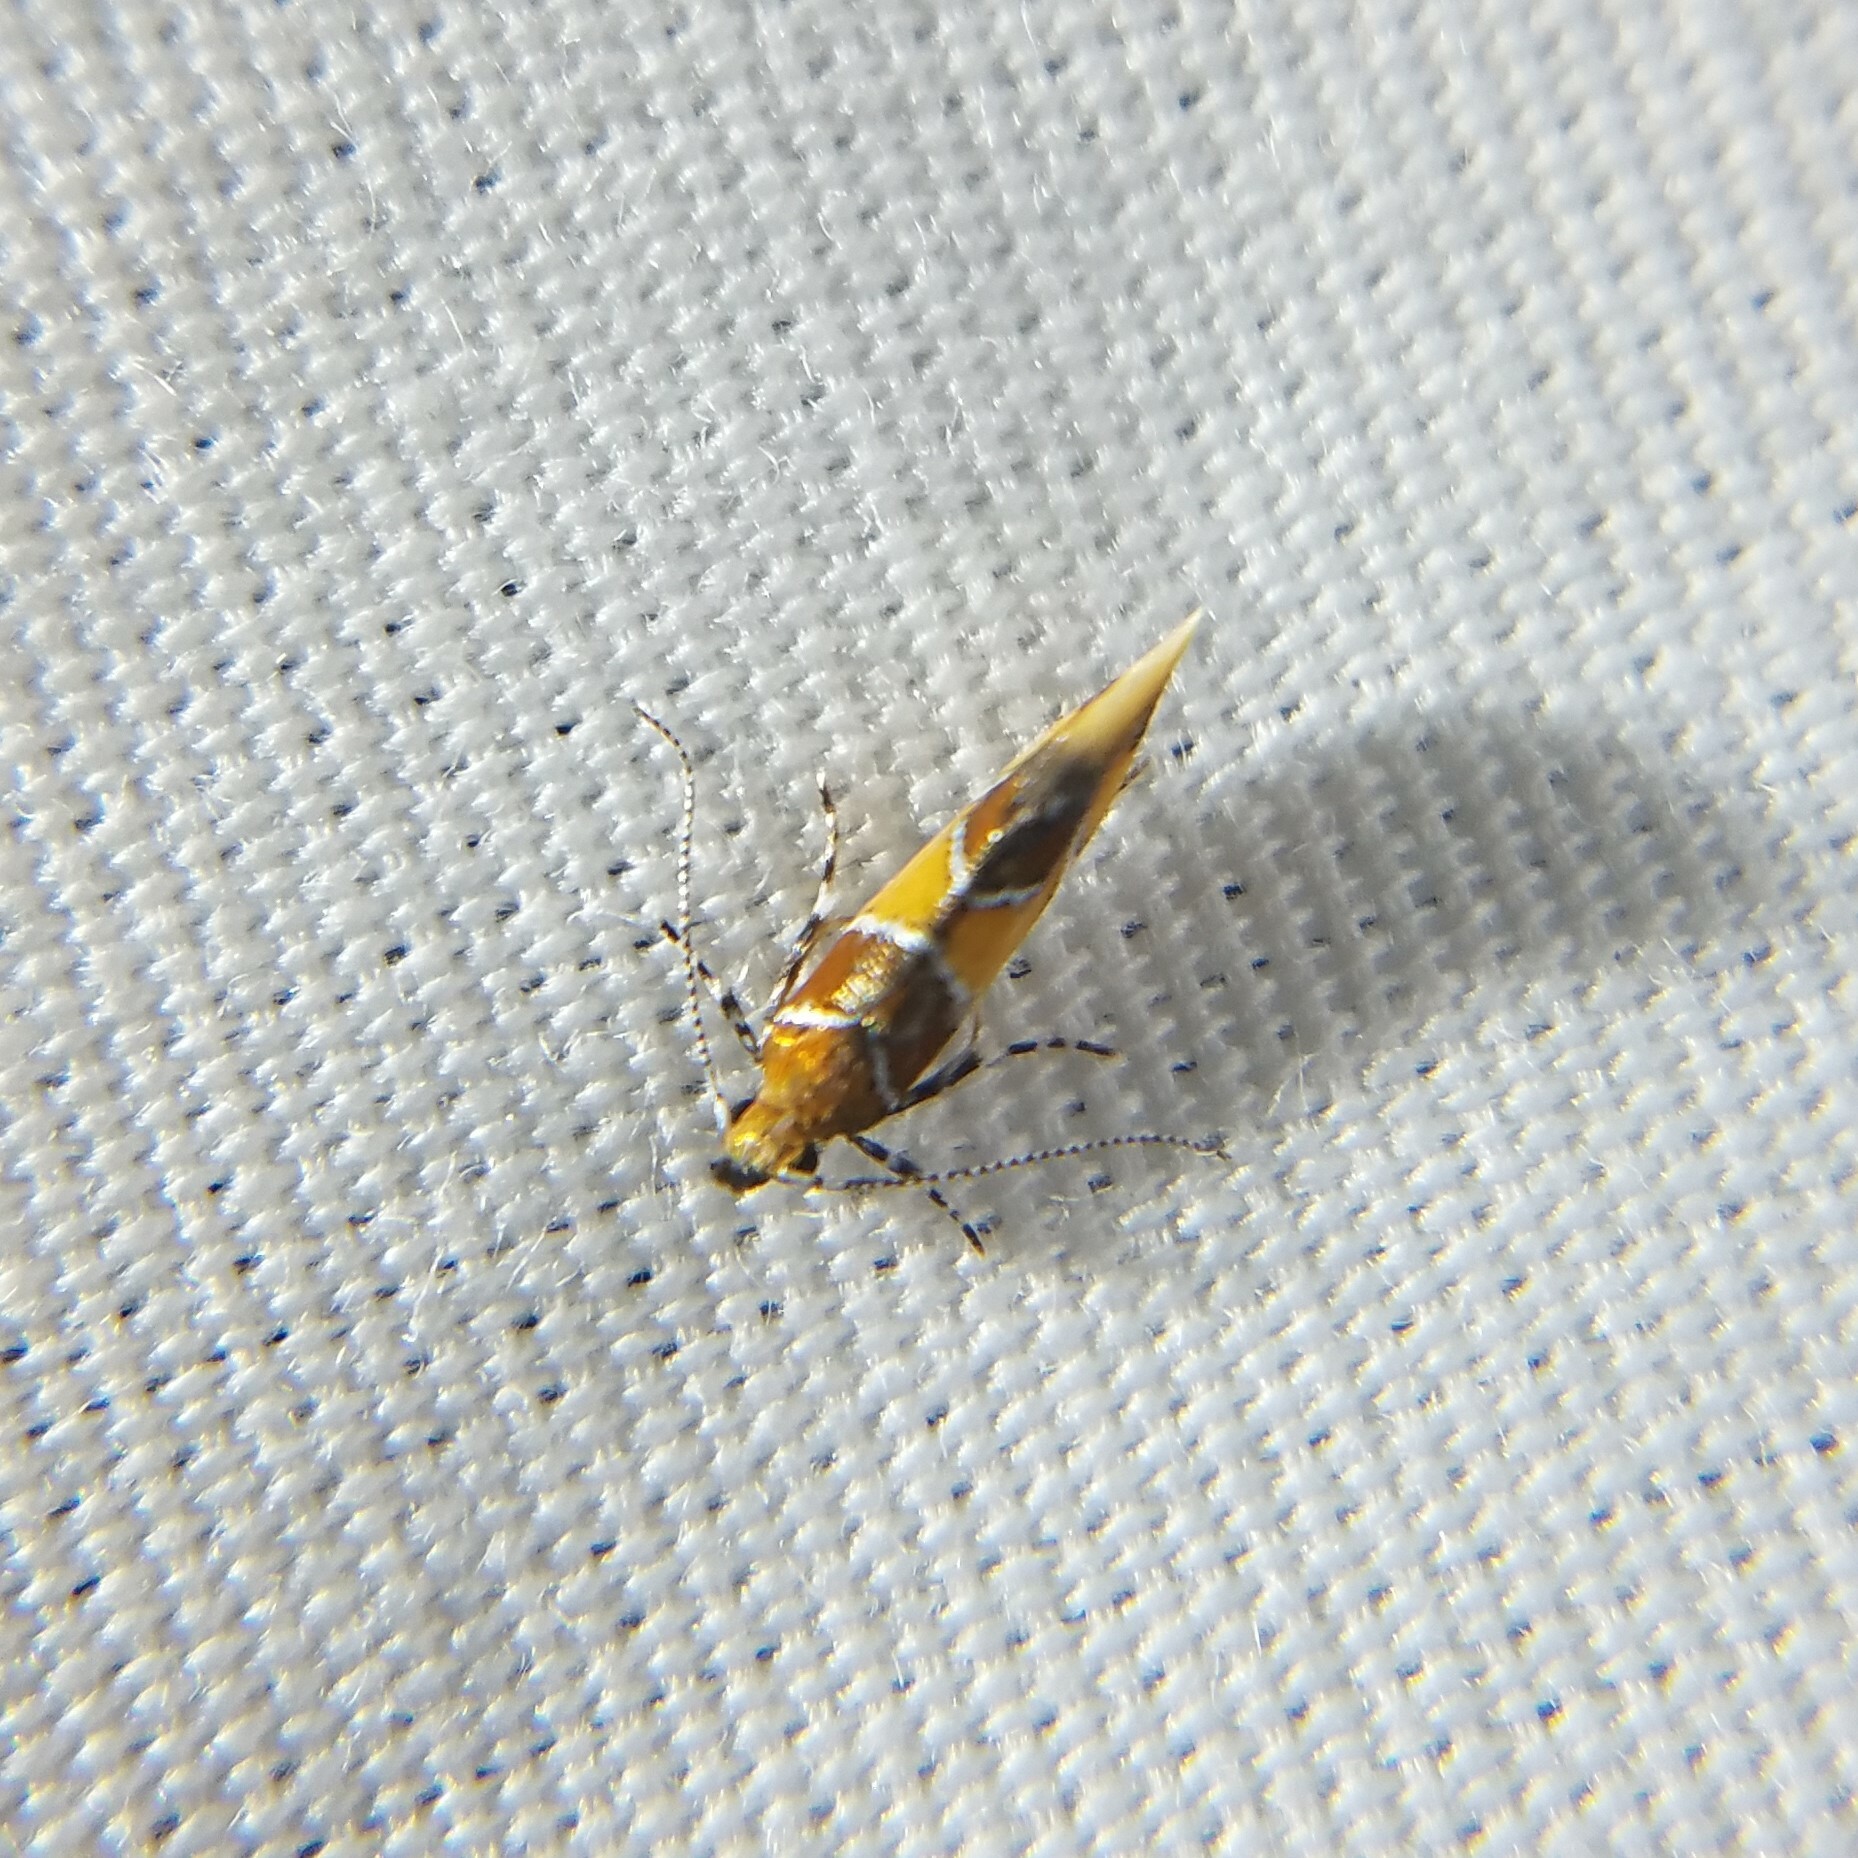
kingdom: Animalia
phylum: Arthropoda
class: Insecta
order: Lepidoptera
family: Oecophoridae
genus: Callima
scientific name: Callima argenticinctella
